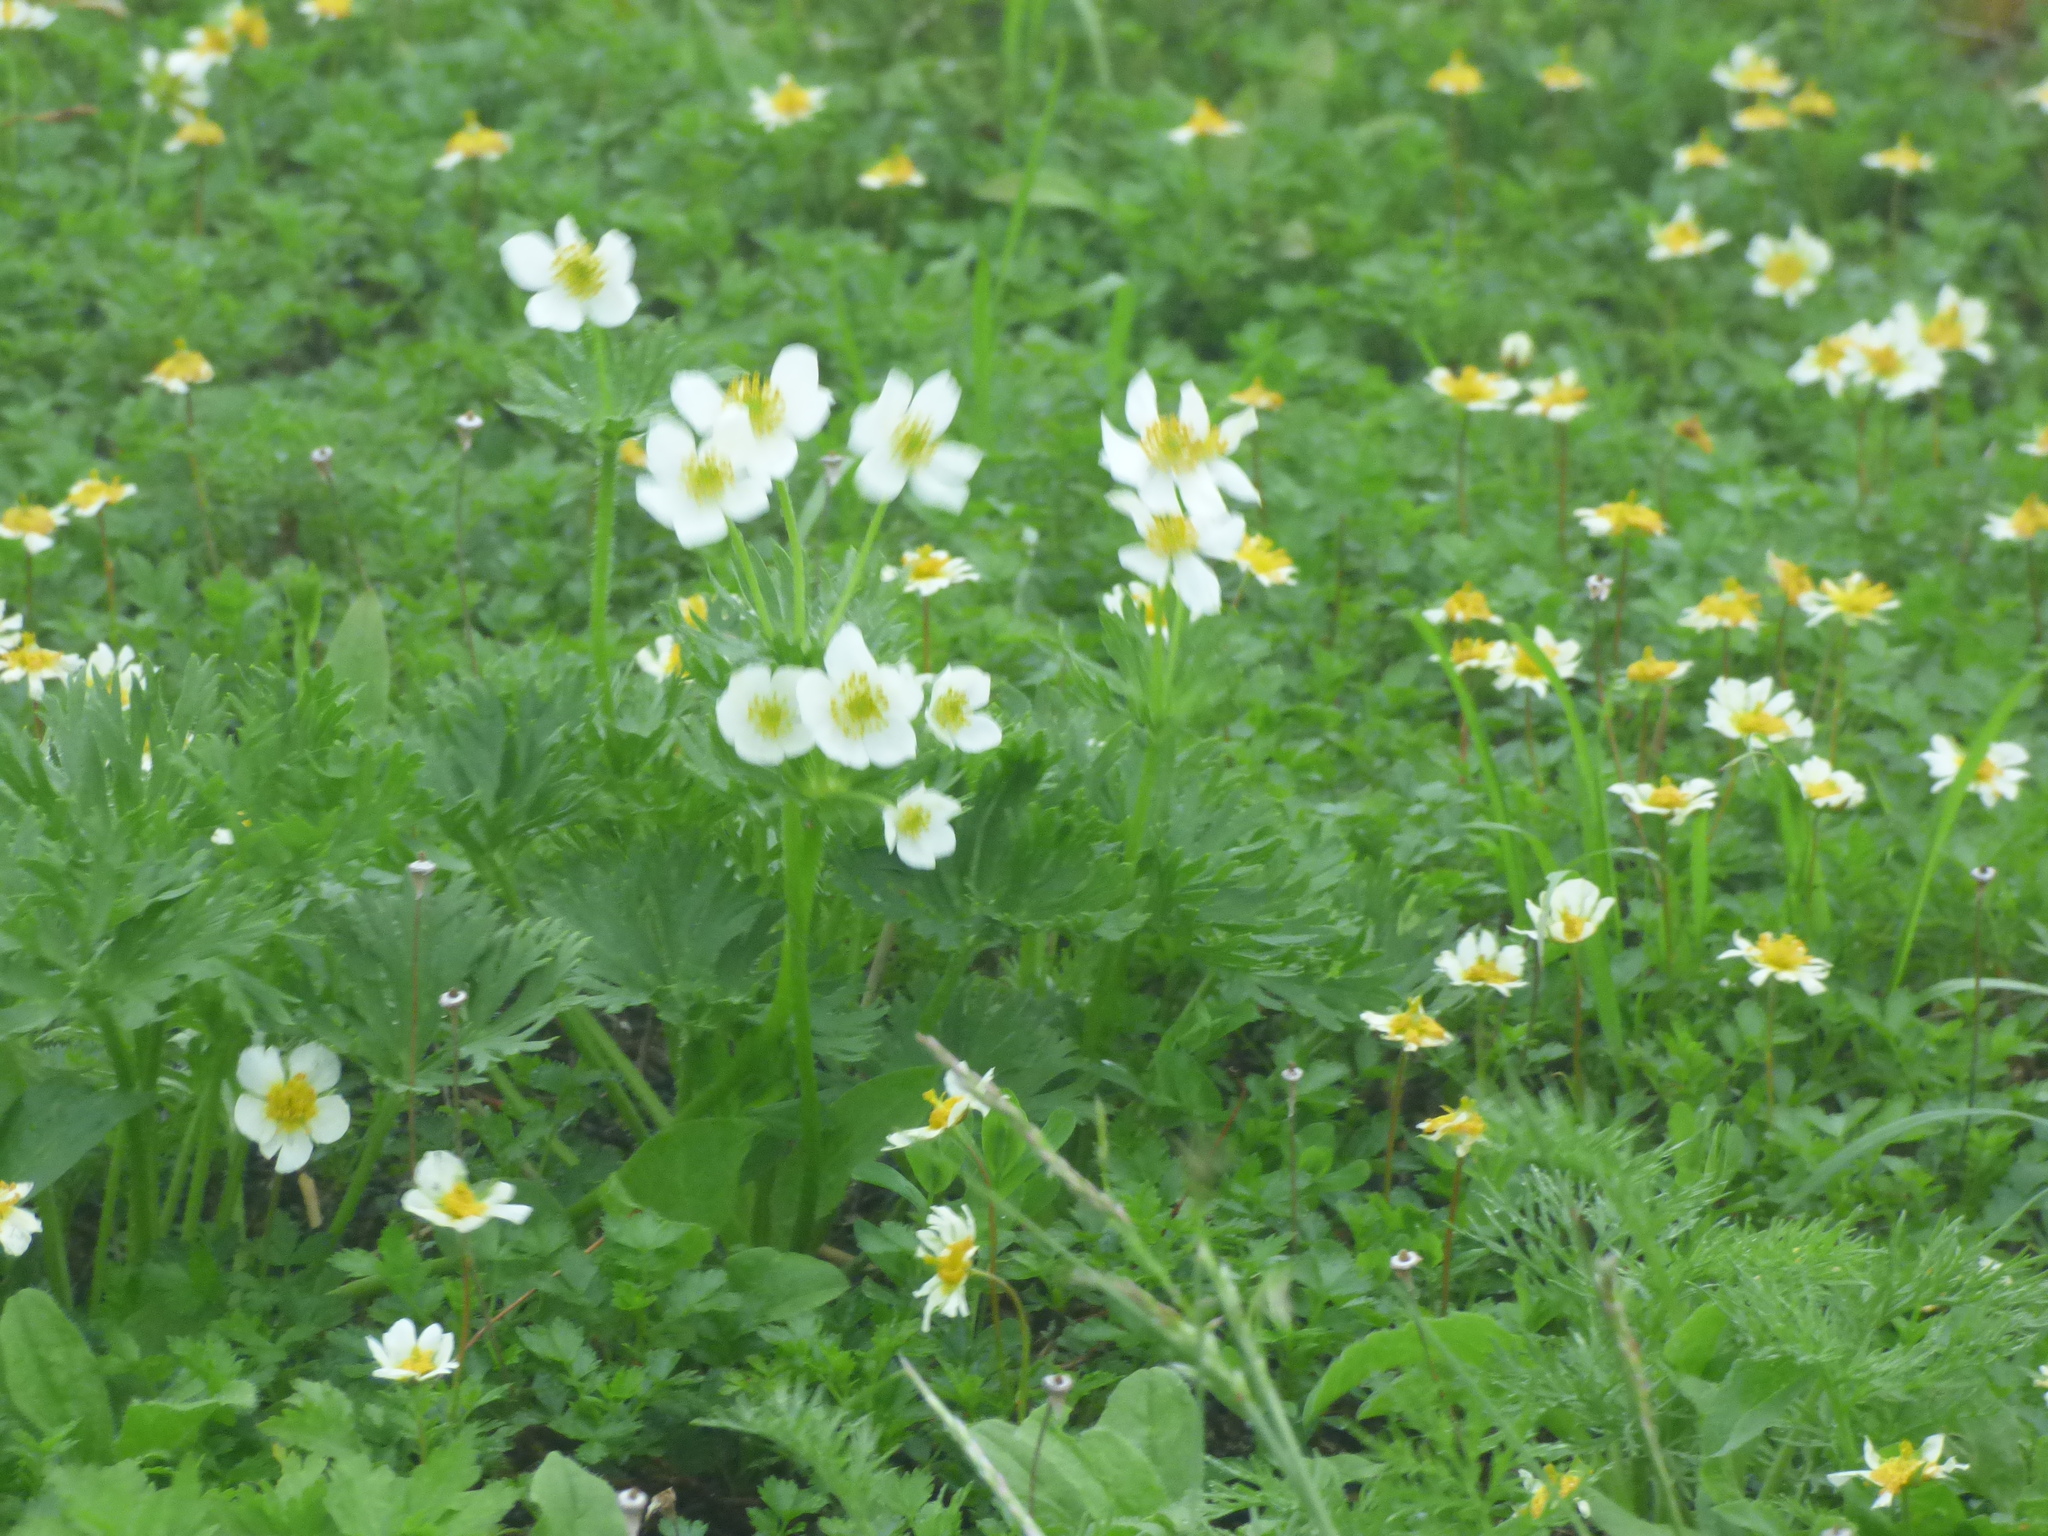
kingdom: Plantae
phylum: Tracheophyta
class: Magnoliopsida
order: Ranunculales
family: Ranunculaceae
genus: Anemonastrum
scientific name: Anemonastrum narcissiflorum
